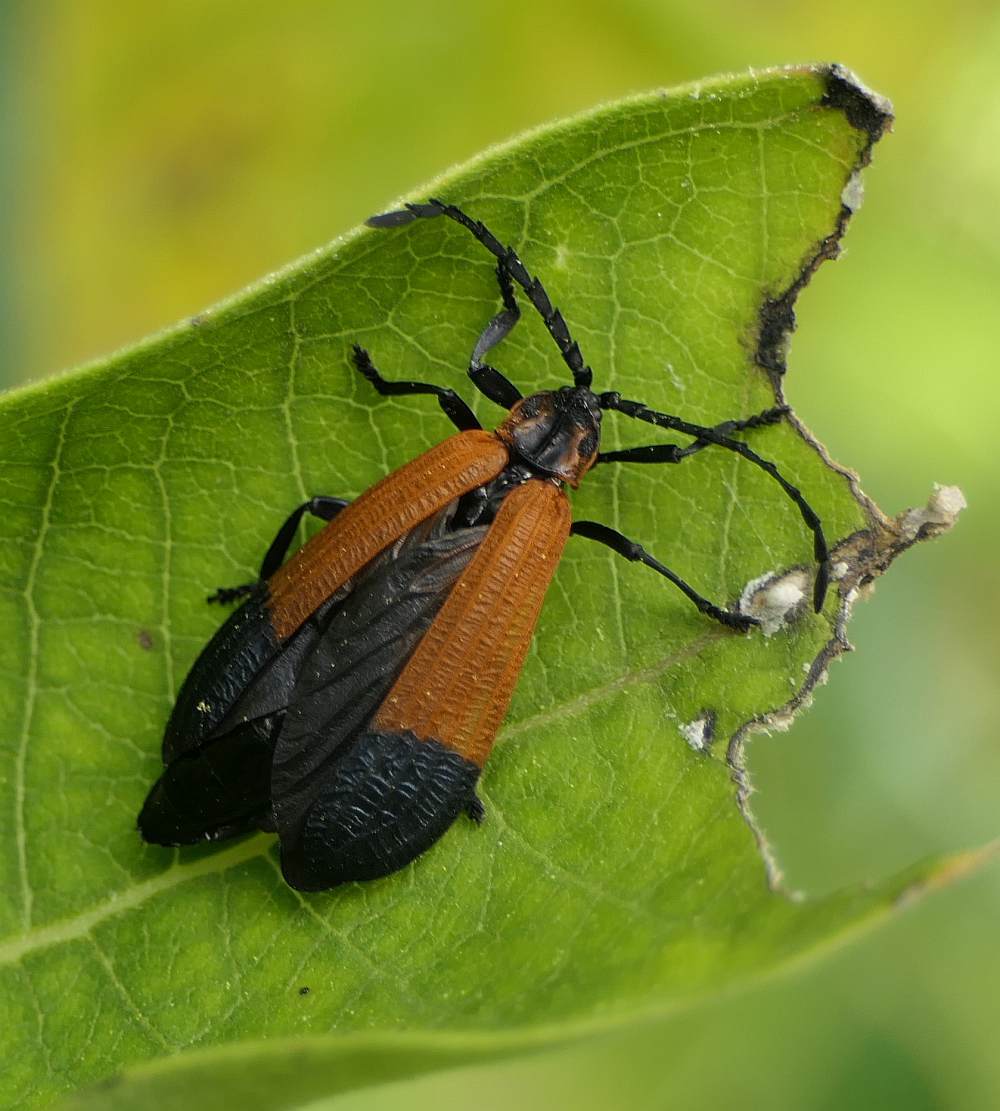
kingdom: Animalia
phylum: Arthropoda
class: Insecta
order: Coleoptera
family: Lycidae
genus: Calopteron
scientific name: Calopteron terminale
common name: End band net-winged beetle
